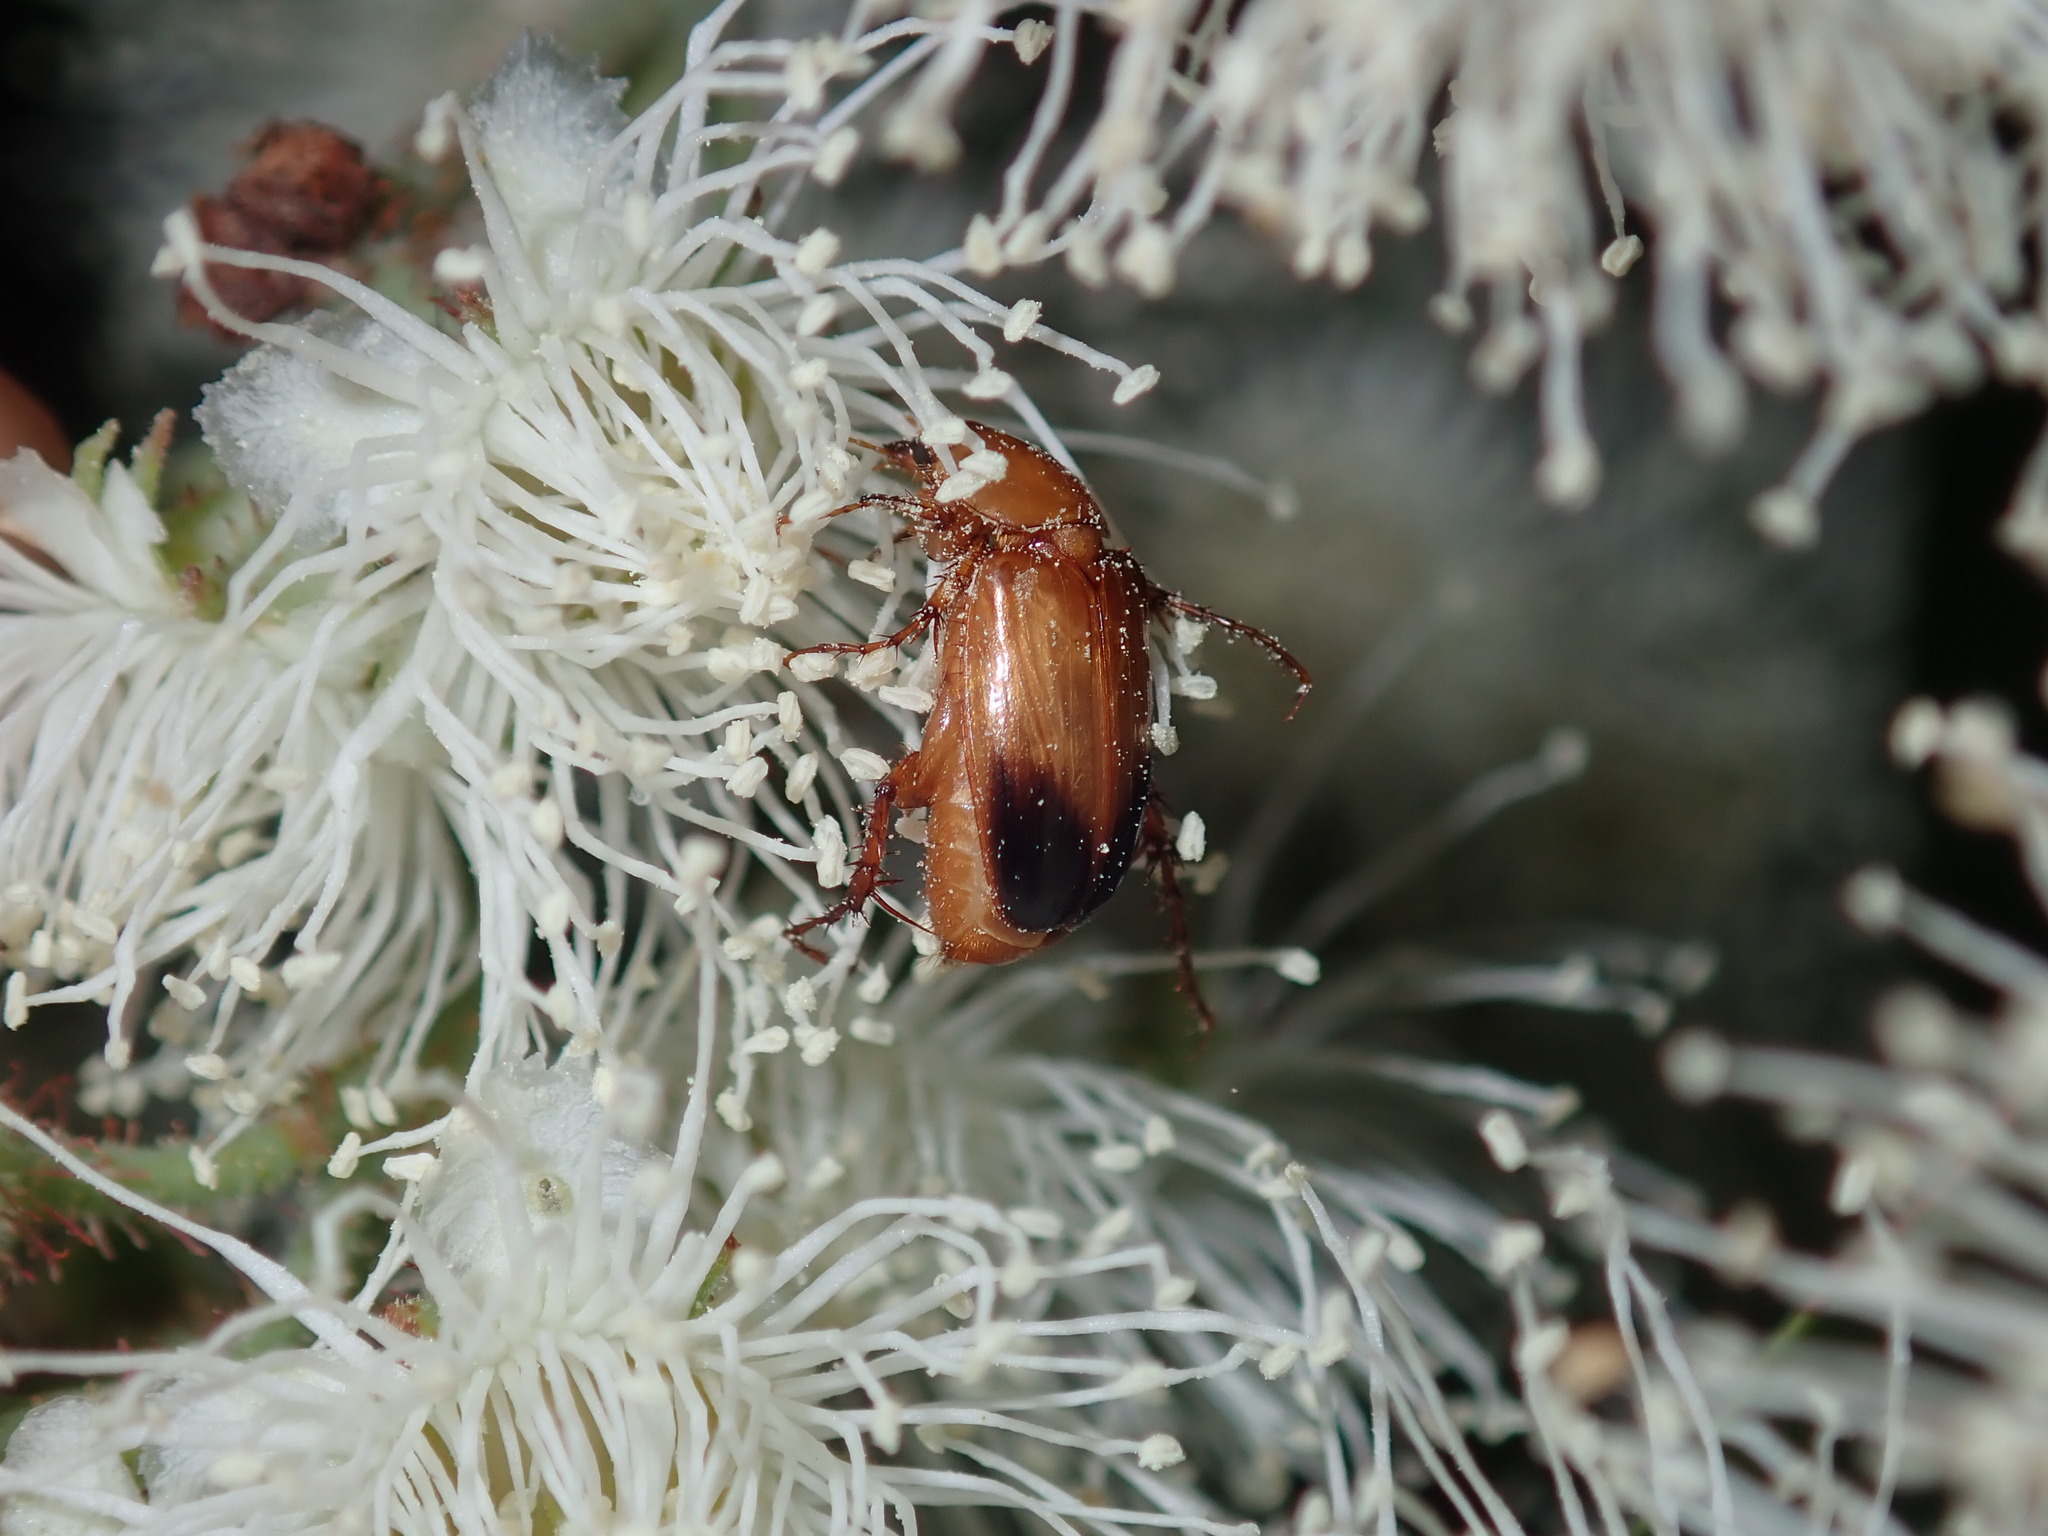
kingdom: Animalia
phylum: Arthropoda
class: Insecta
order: Coleoptera
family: Scarabaeidae
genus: Phyllotocus
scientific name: Phyllotocus macleayi
